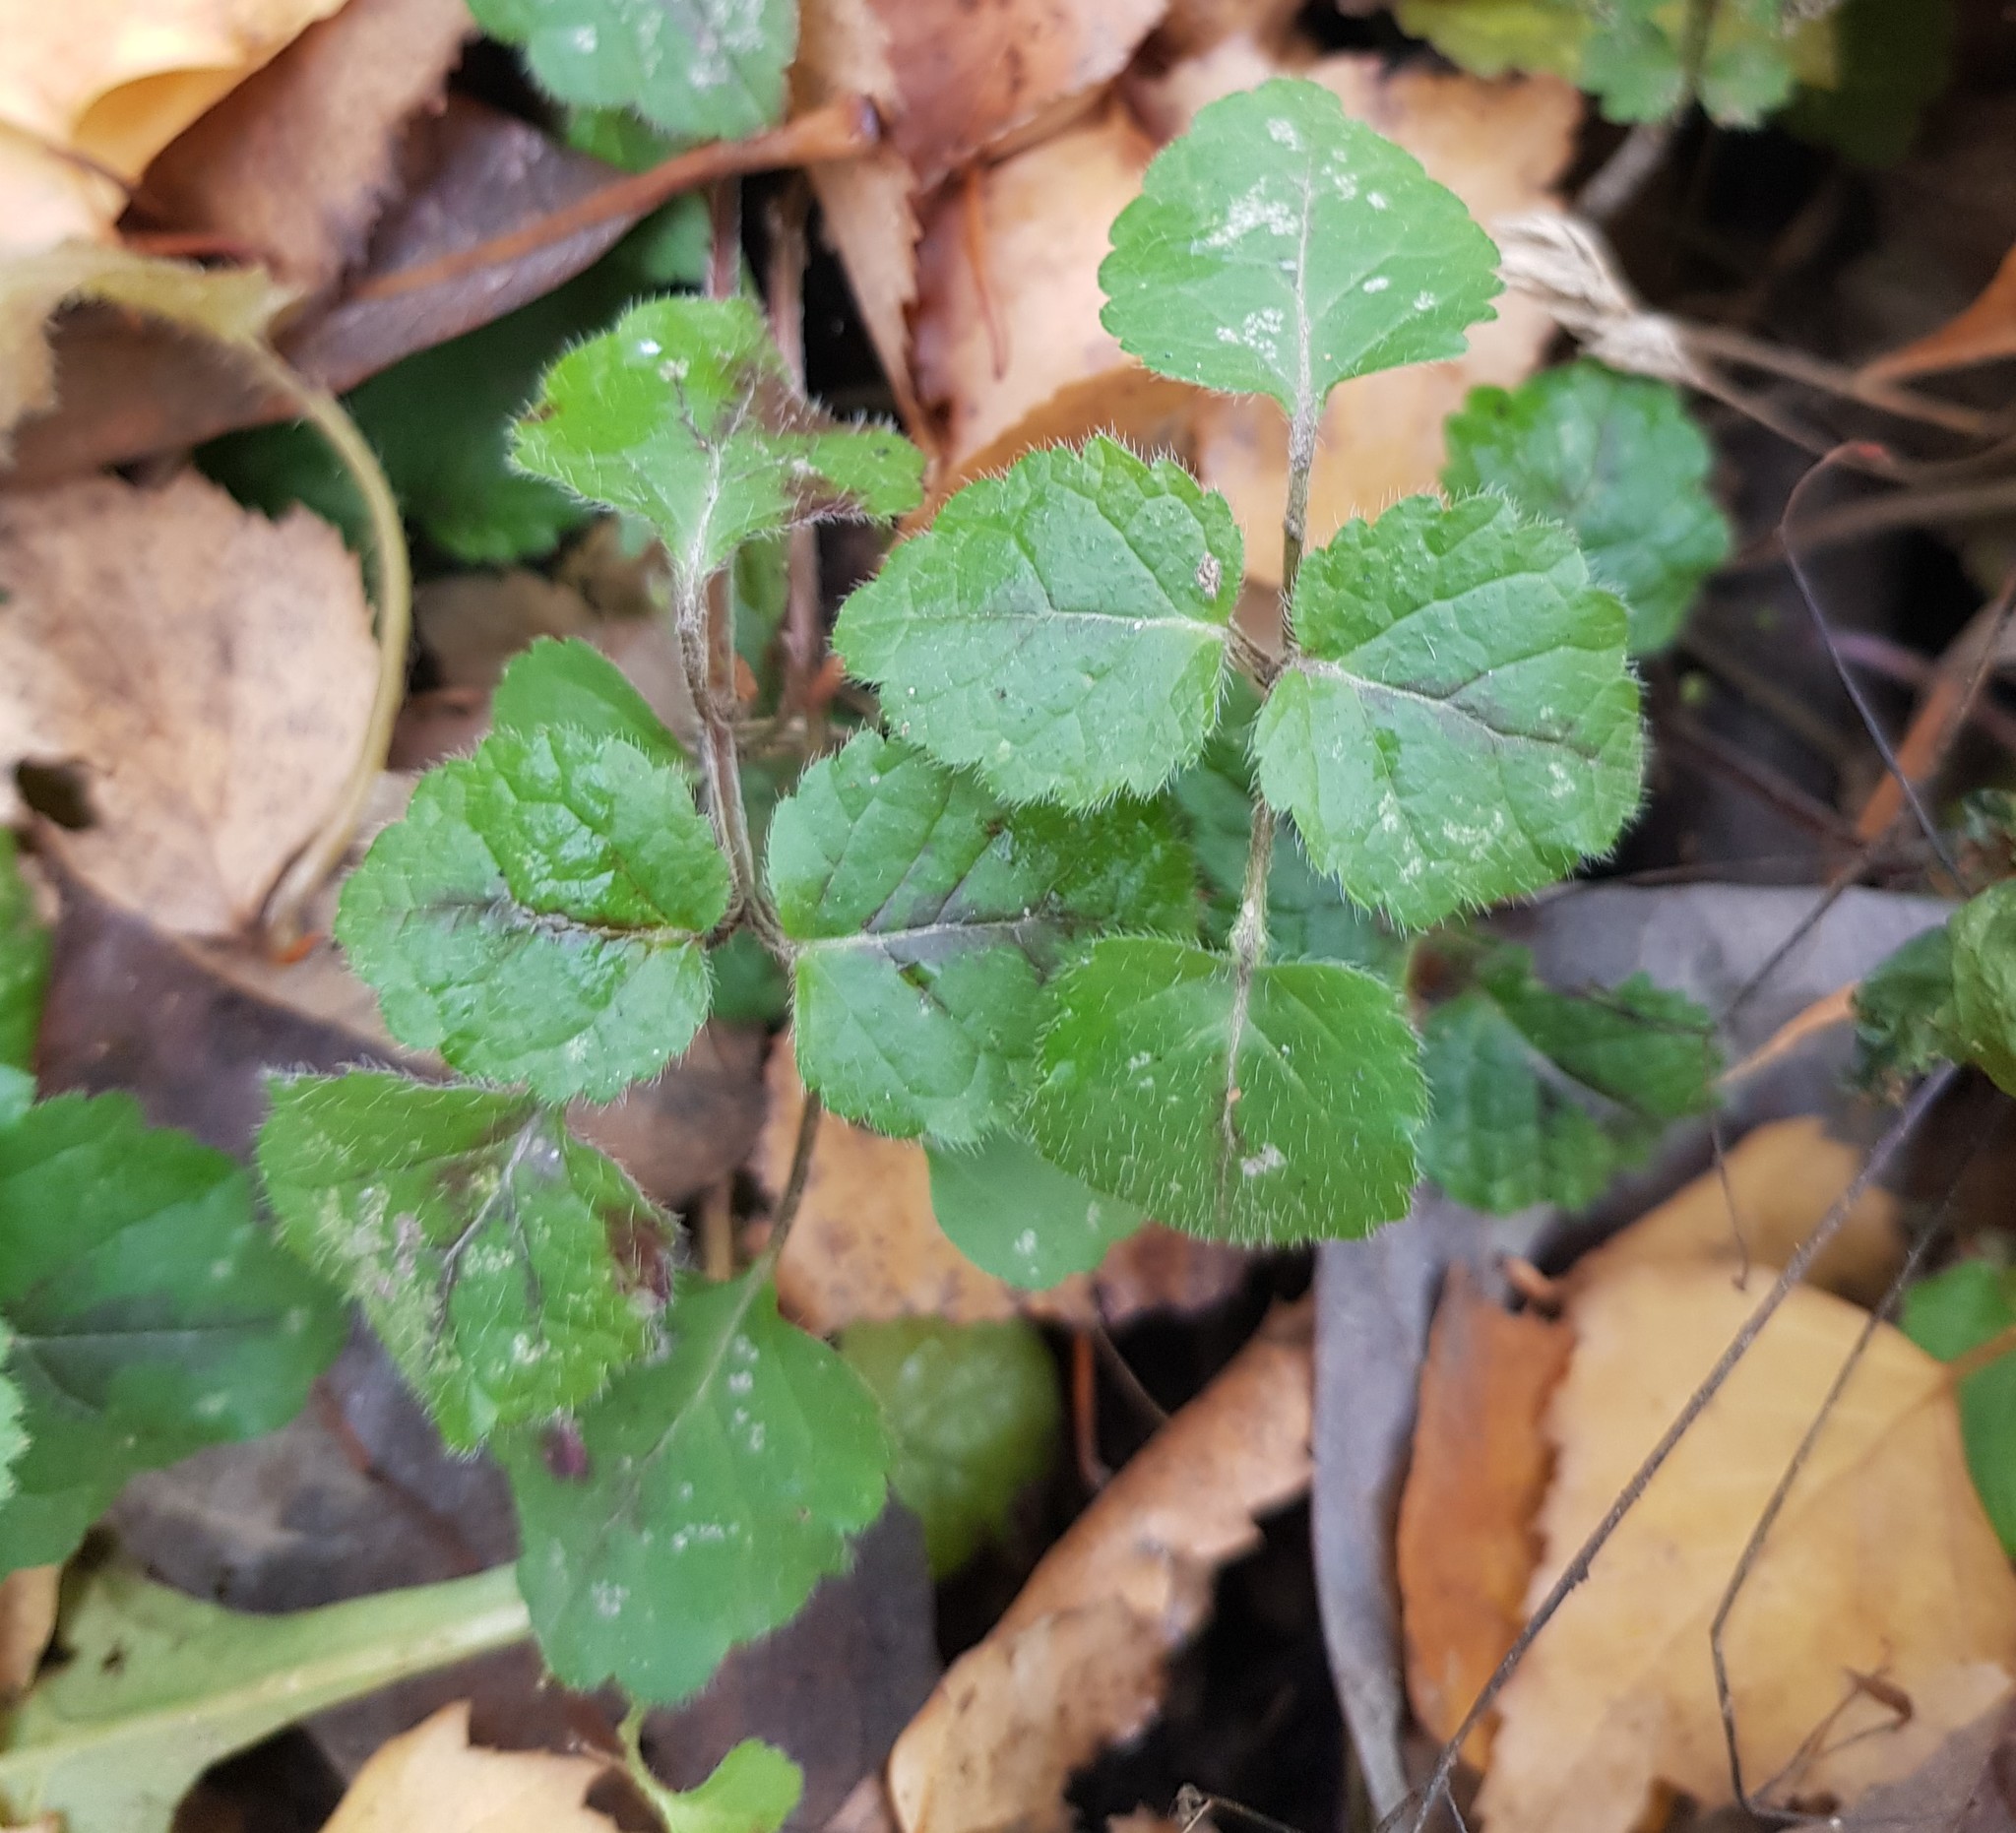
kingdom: Plantae
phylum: Tracheophyta
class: Magnoliopsida
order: Lamiales
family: Lamiaceae
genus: Lamium
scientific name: Lamium galeobdolon
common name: Yellow archangel
